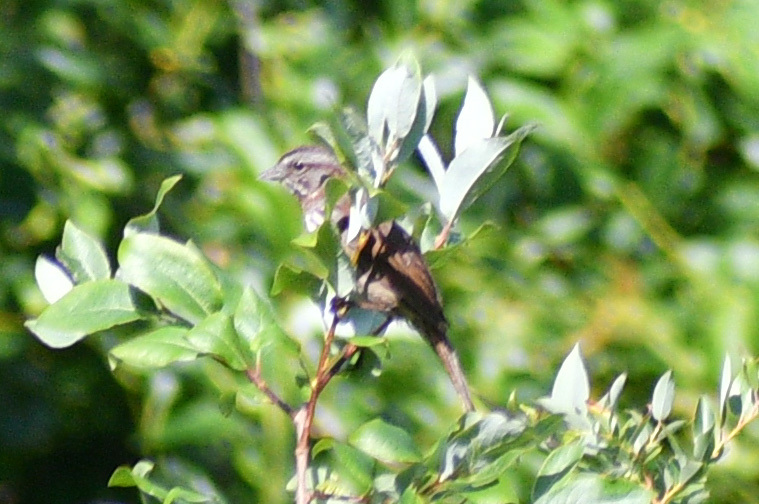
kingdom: Animalia
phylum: Chordata
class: Aves
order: Passeriformes
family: Passerellidae
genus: Melospiza
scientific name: Melospiza melodia
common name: Song sparrow
